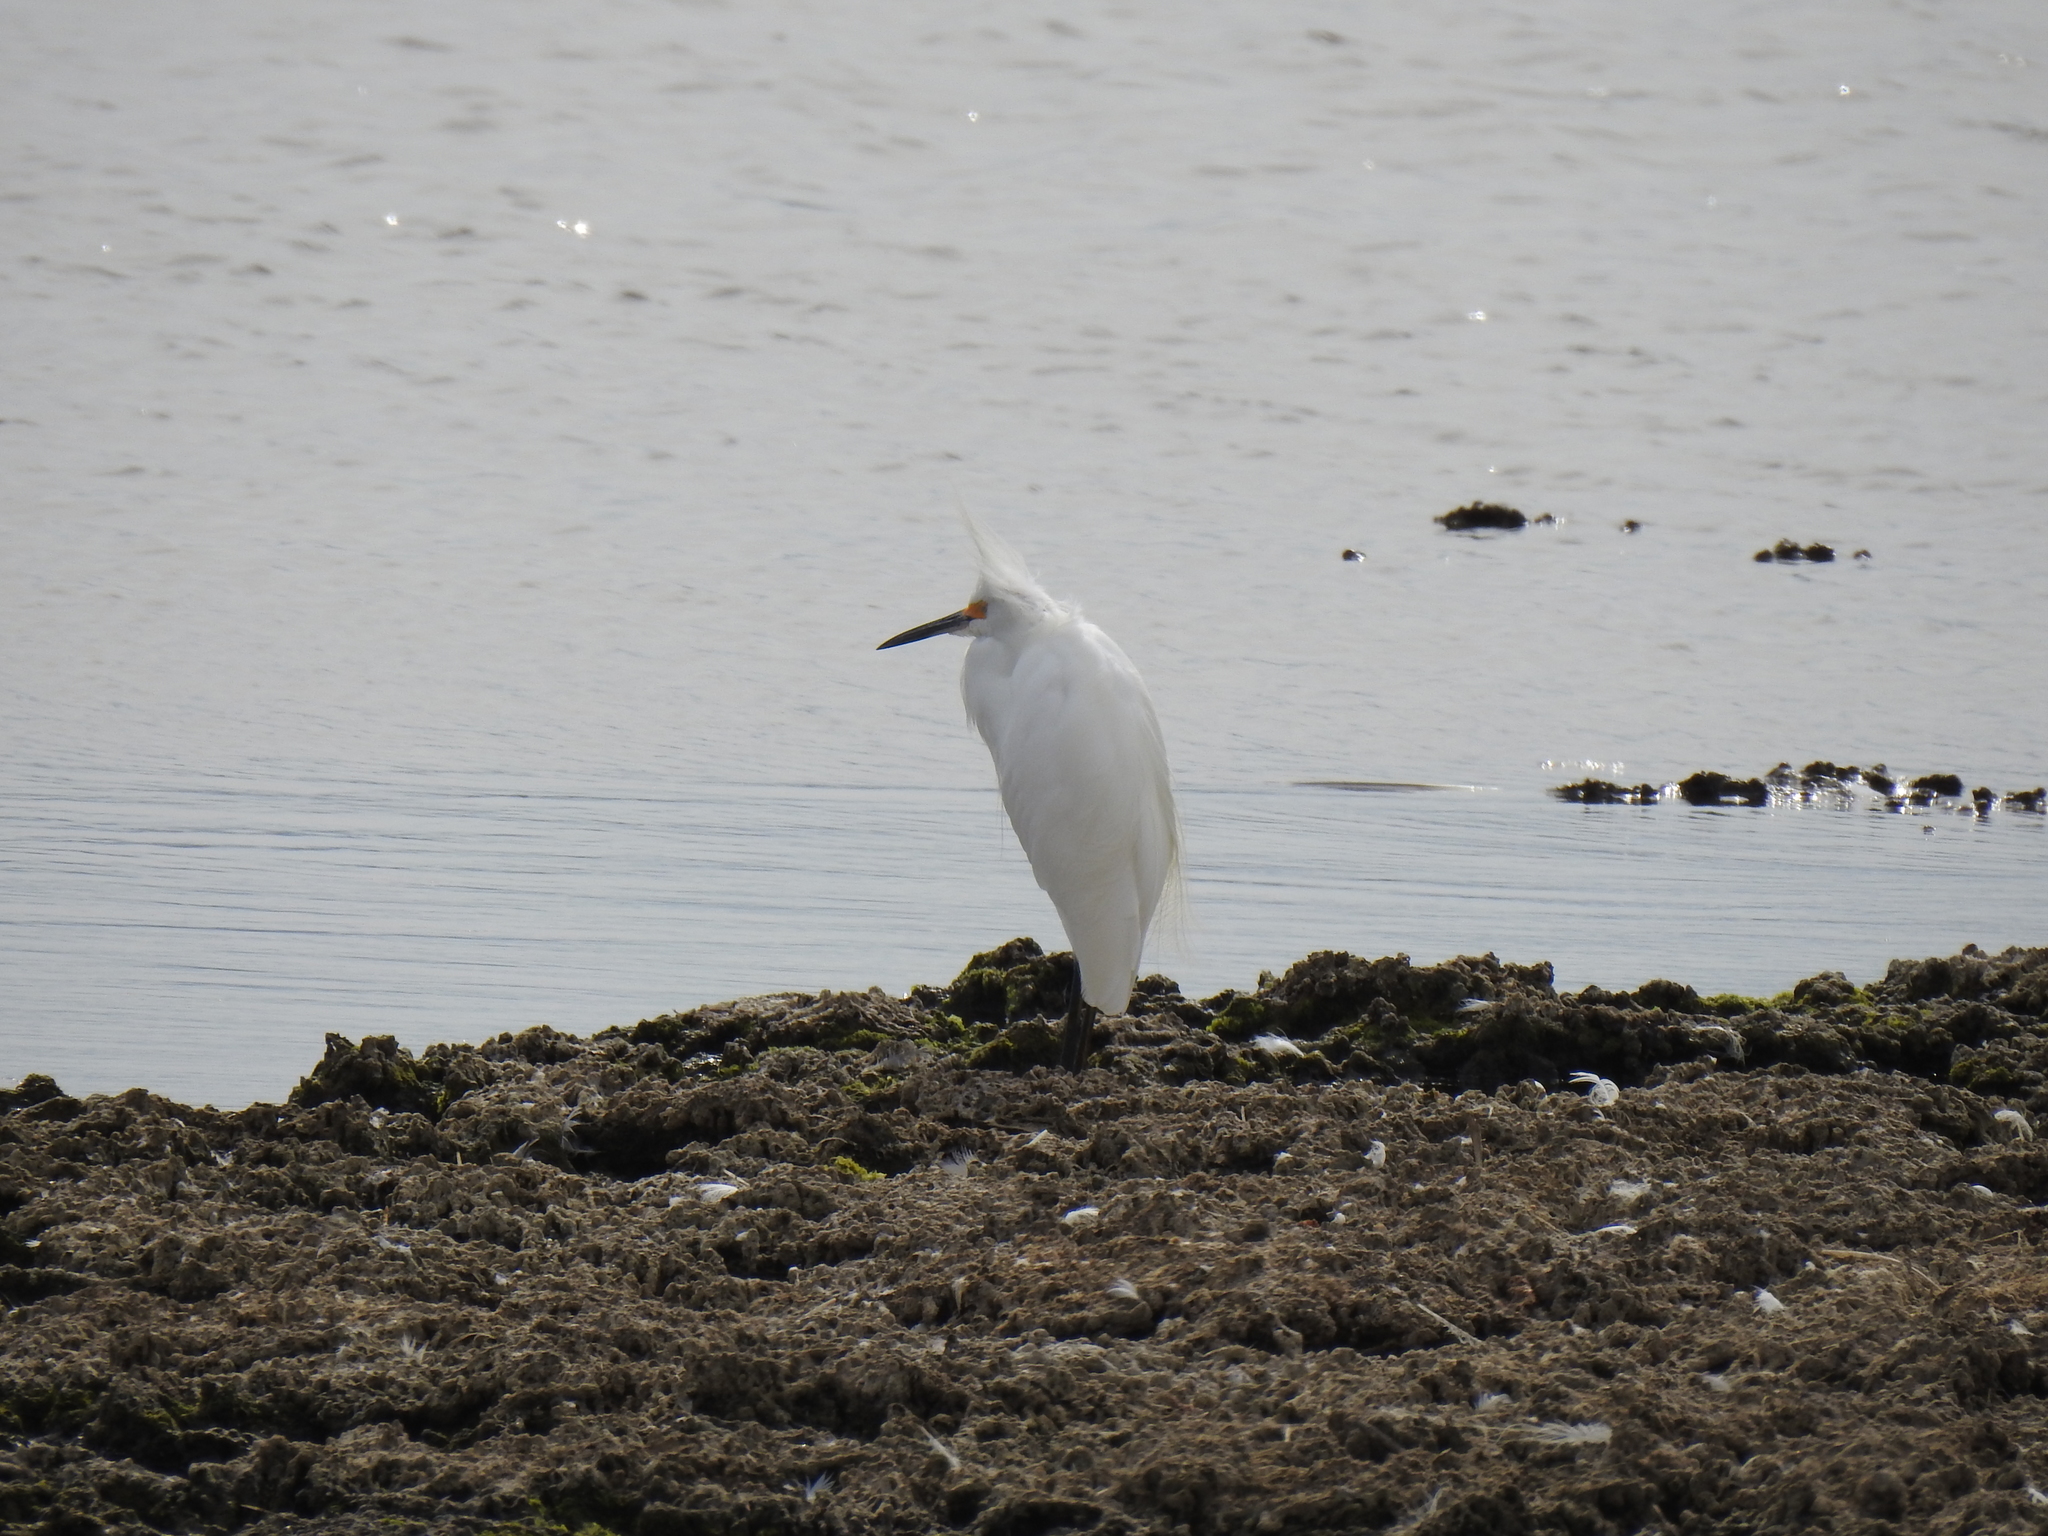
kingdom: Animalia
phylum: Chordata
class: Aves
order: Pelecaniformes
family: Ardeidae
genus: Egretta
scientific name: Egretta thula
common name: Snowy egret
